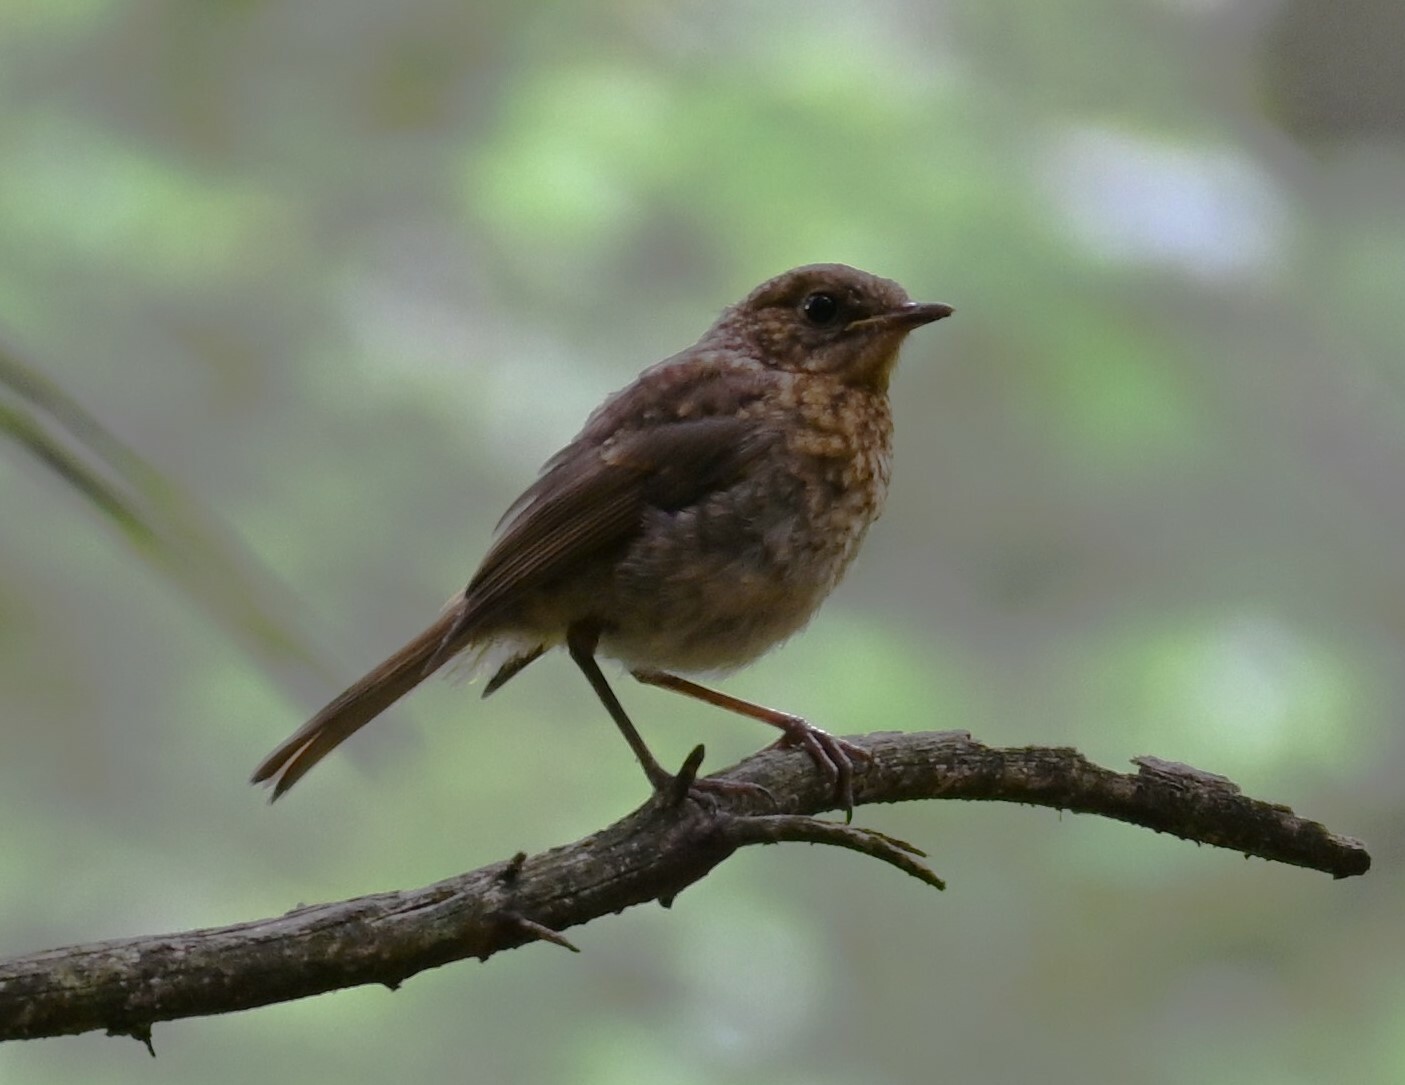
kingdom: Animalia
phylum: Chordata
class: Aves
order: Passeriformes
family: Muscicapidae
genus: Erithacus
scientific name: Erithacus rubecula
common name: European robin
